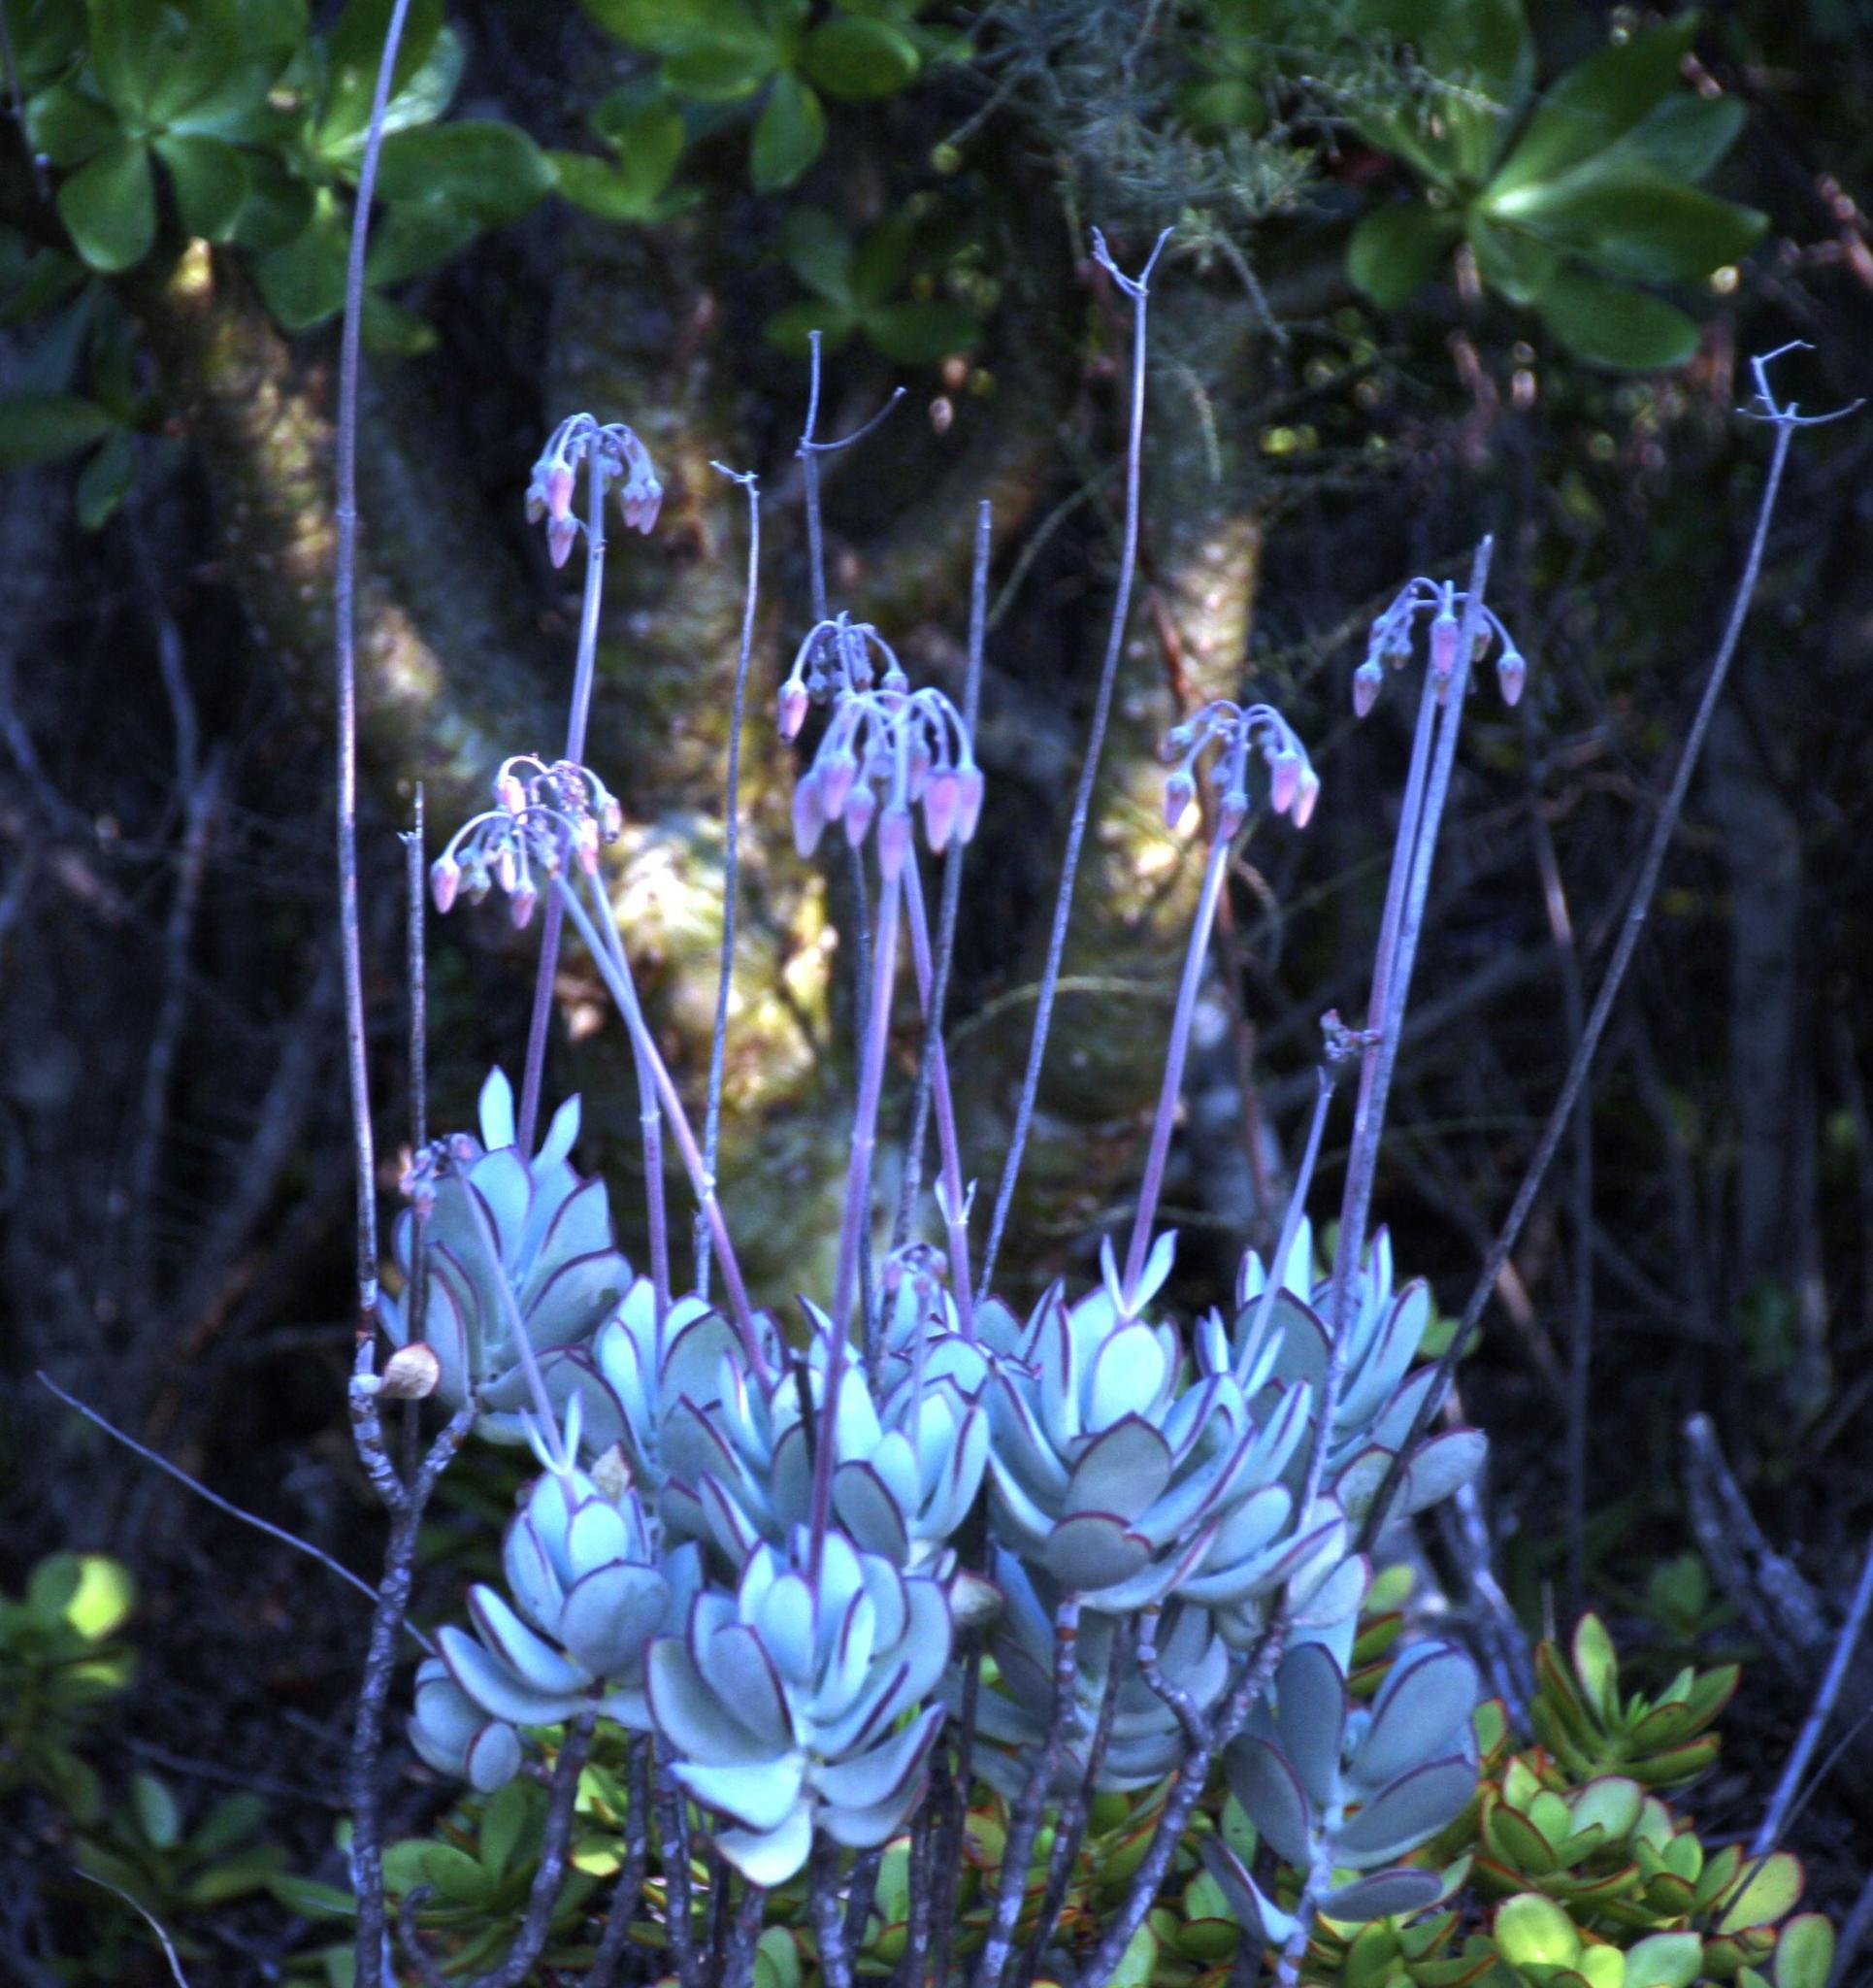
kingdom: Plantae
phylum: Tracheophyta
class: Magnoliopsida
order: Saxifragales
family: Crassulaceae
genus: Cotyledon
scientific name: Cotyledon orbiculata
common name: Pig's ear
